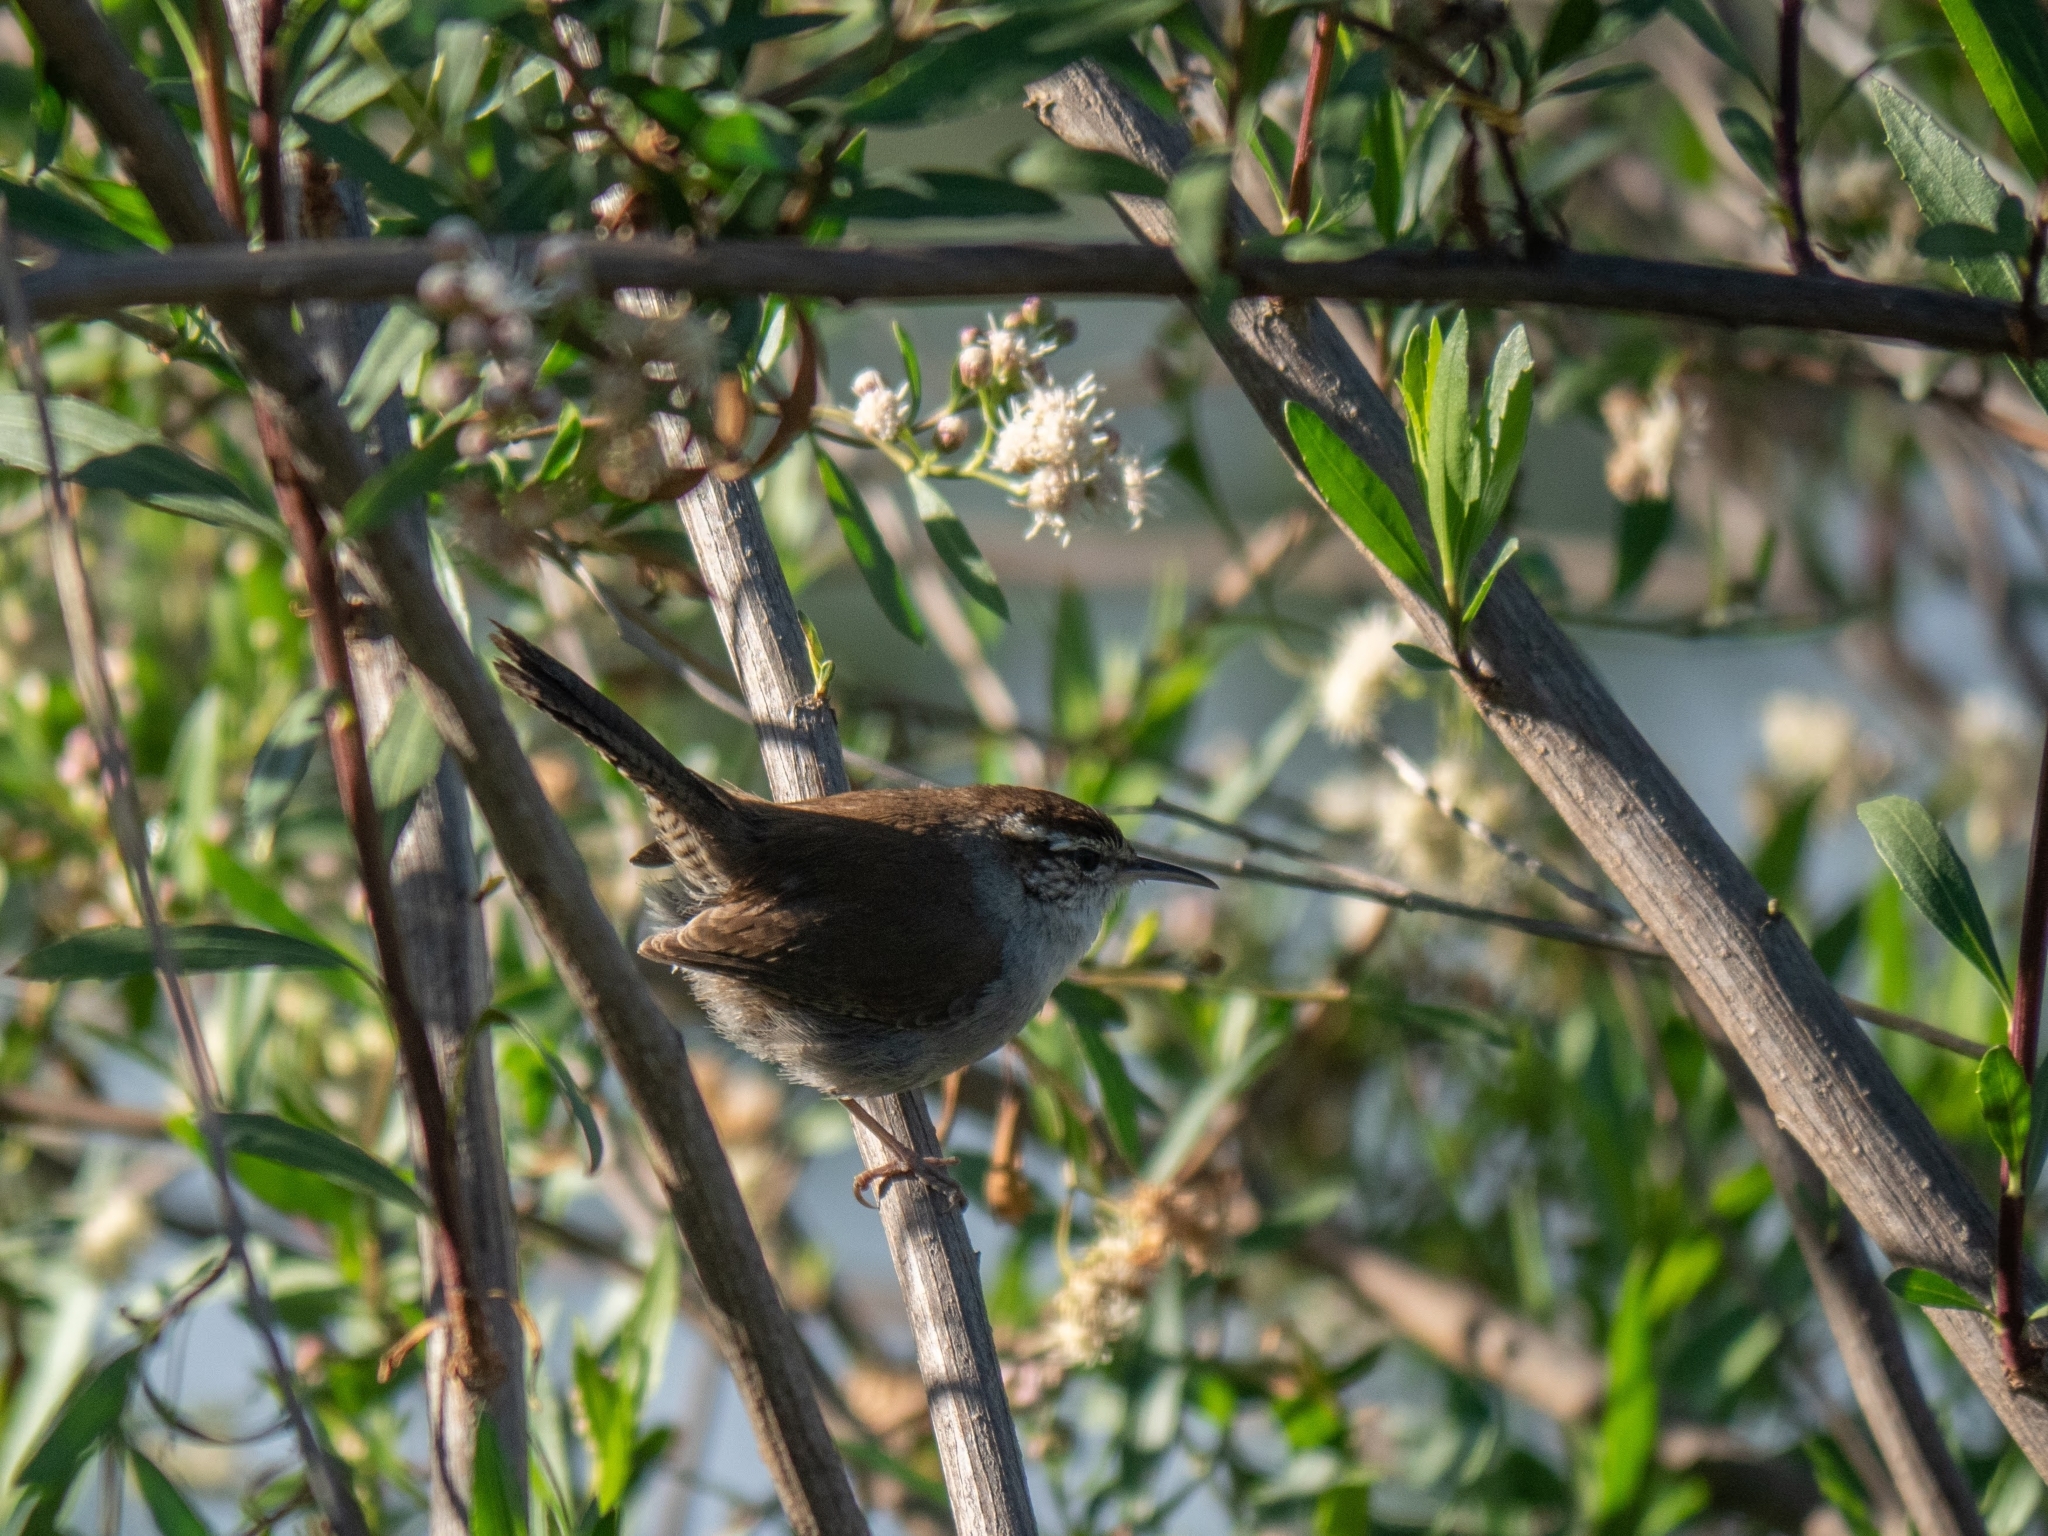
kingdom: Animalia
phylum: Chordata
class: Aves
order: Passeriformes
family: Troglodytidae
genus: Thryomanes
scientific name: Thryomanes bewickii
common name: Bewick's wren
